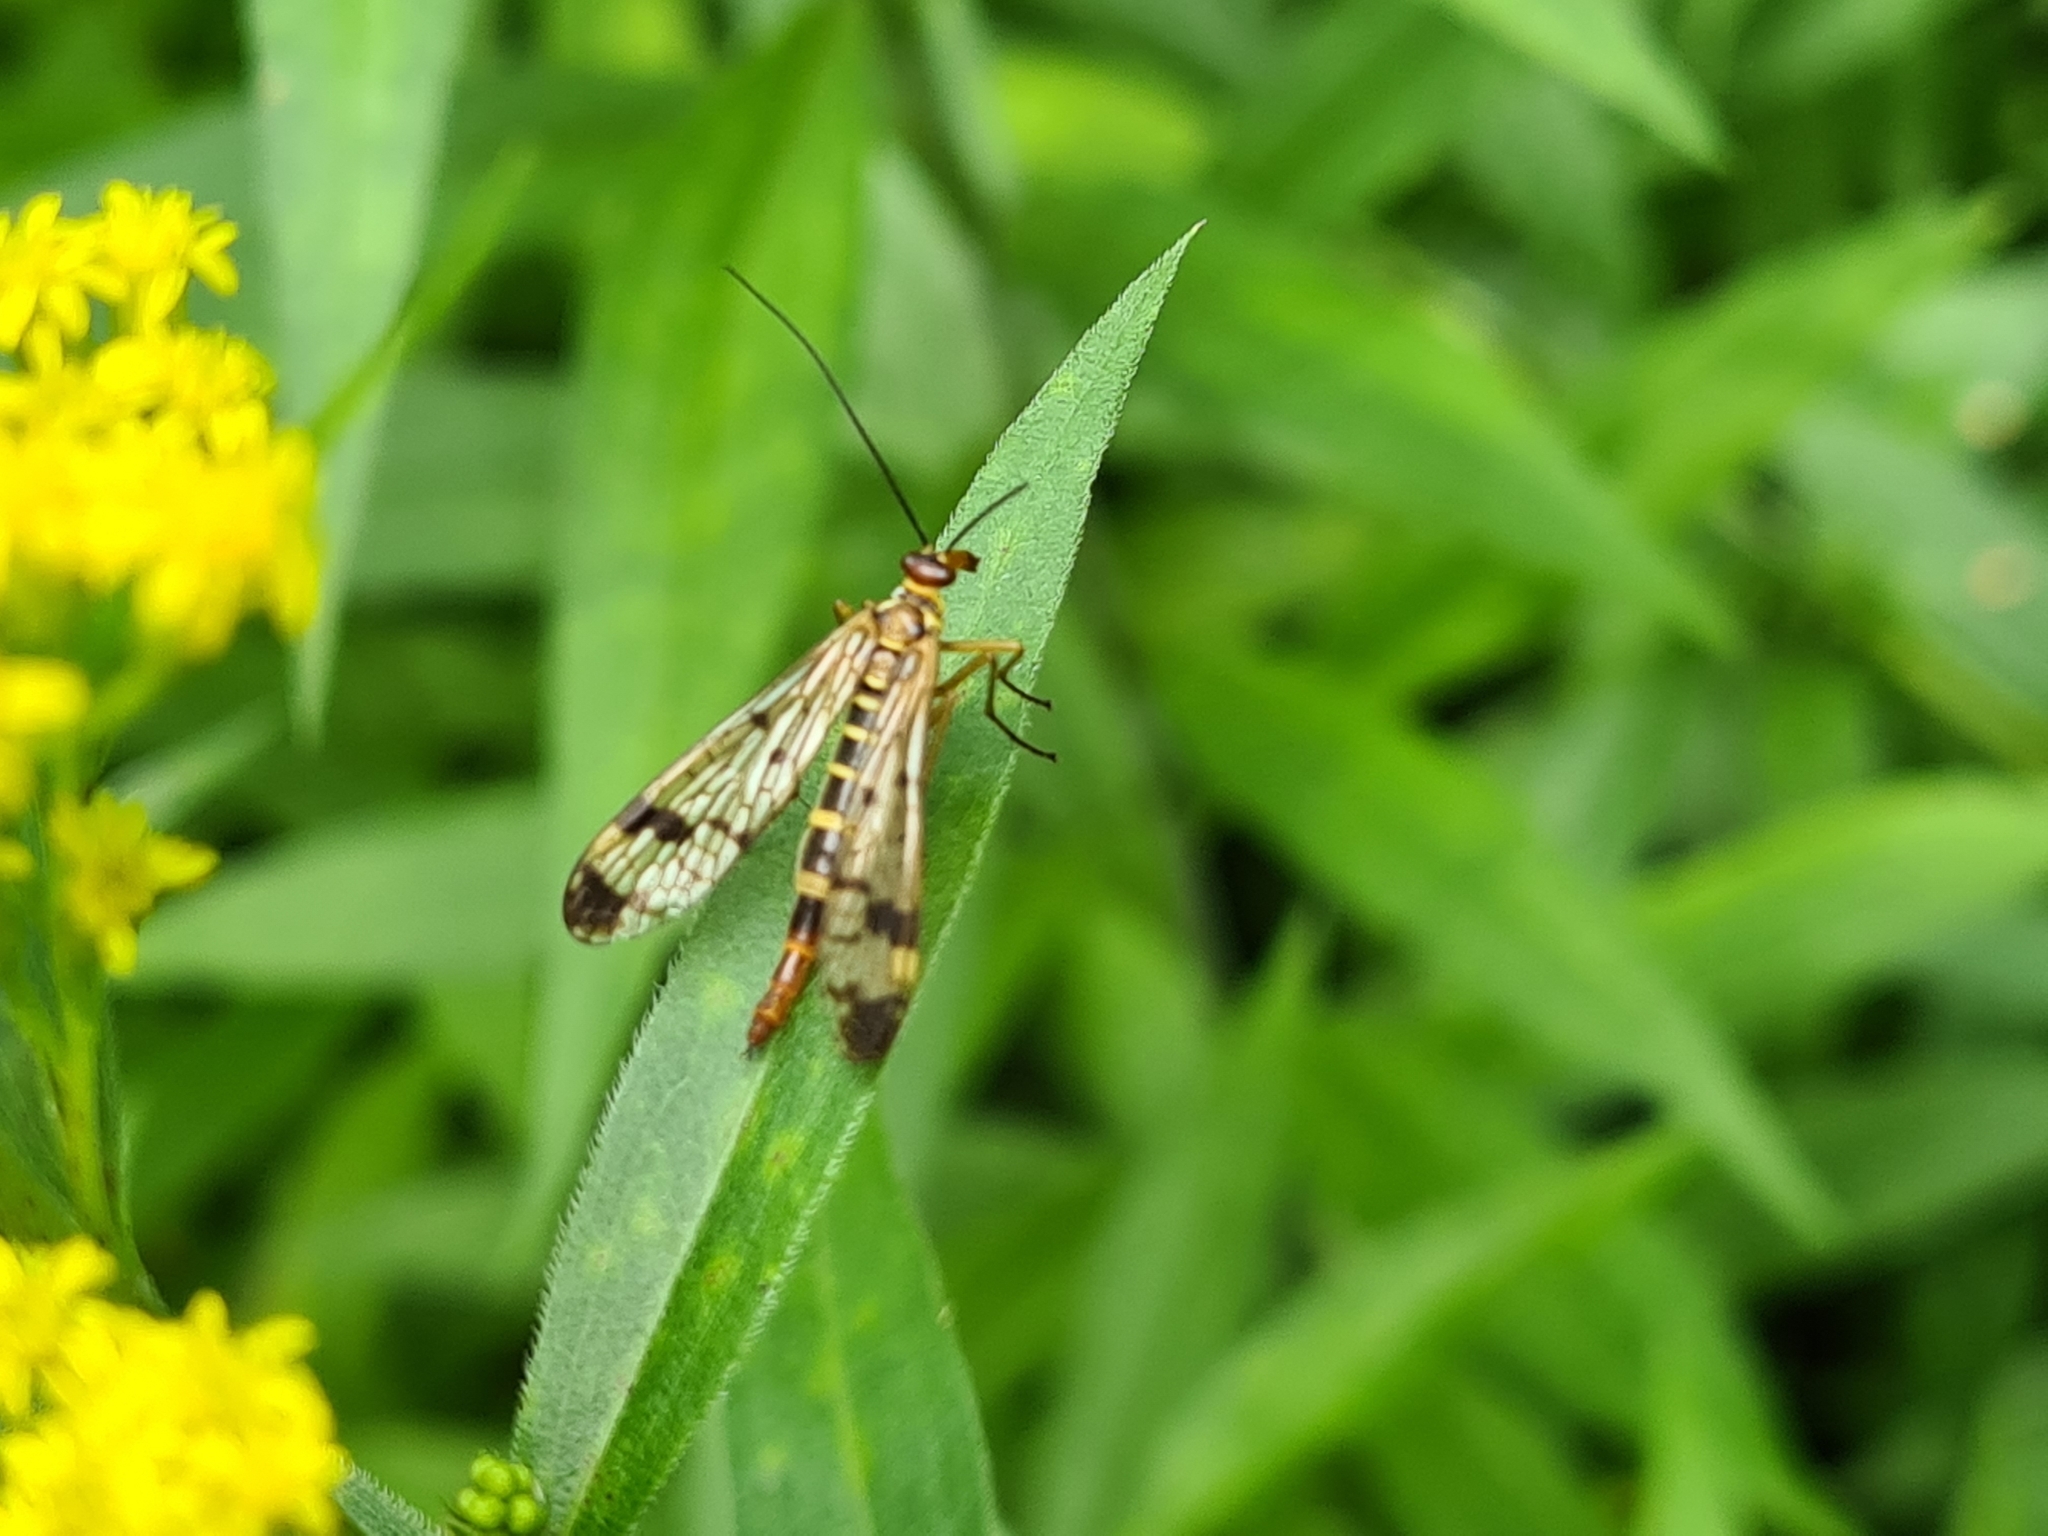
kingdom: Animalia
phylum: Arthropoda
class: Insecta
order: Mecoptera
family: Panorpidae
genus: Panorpa
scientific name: Panorpa cognata
